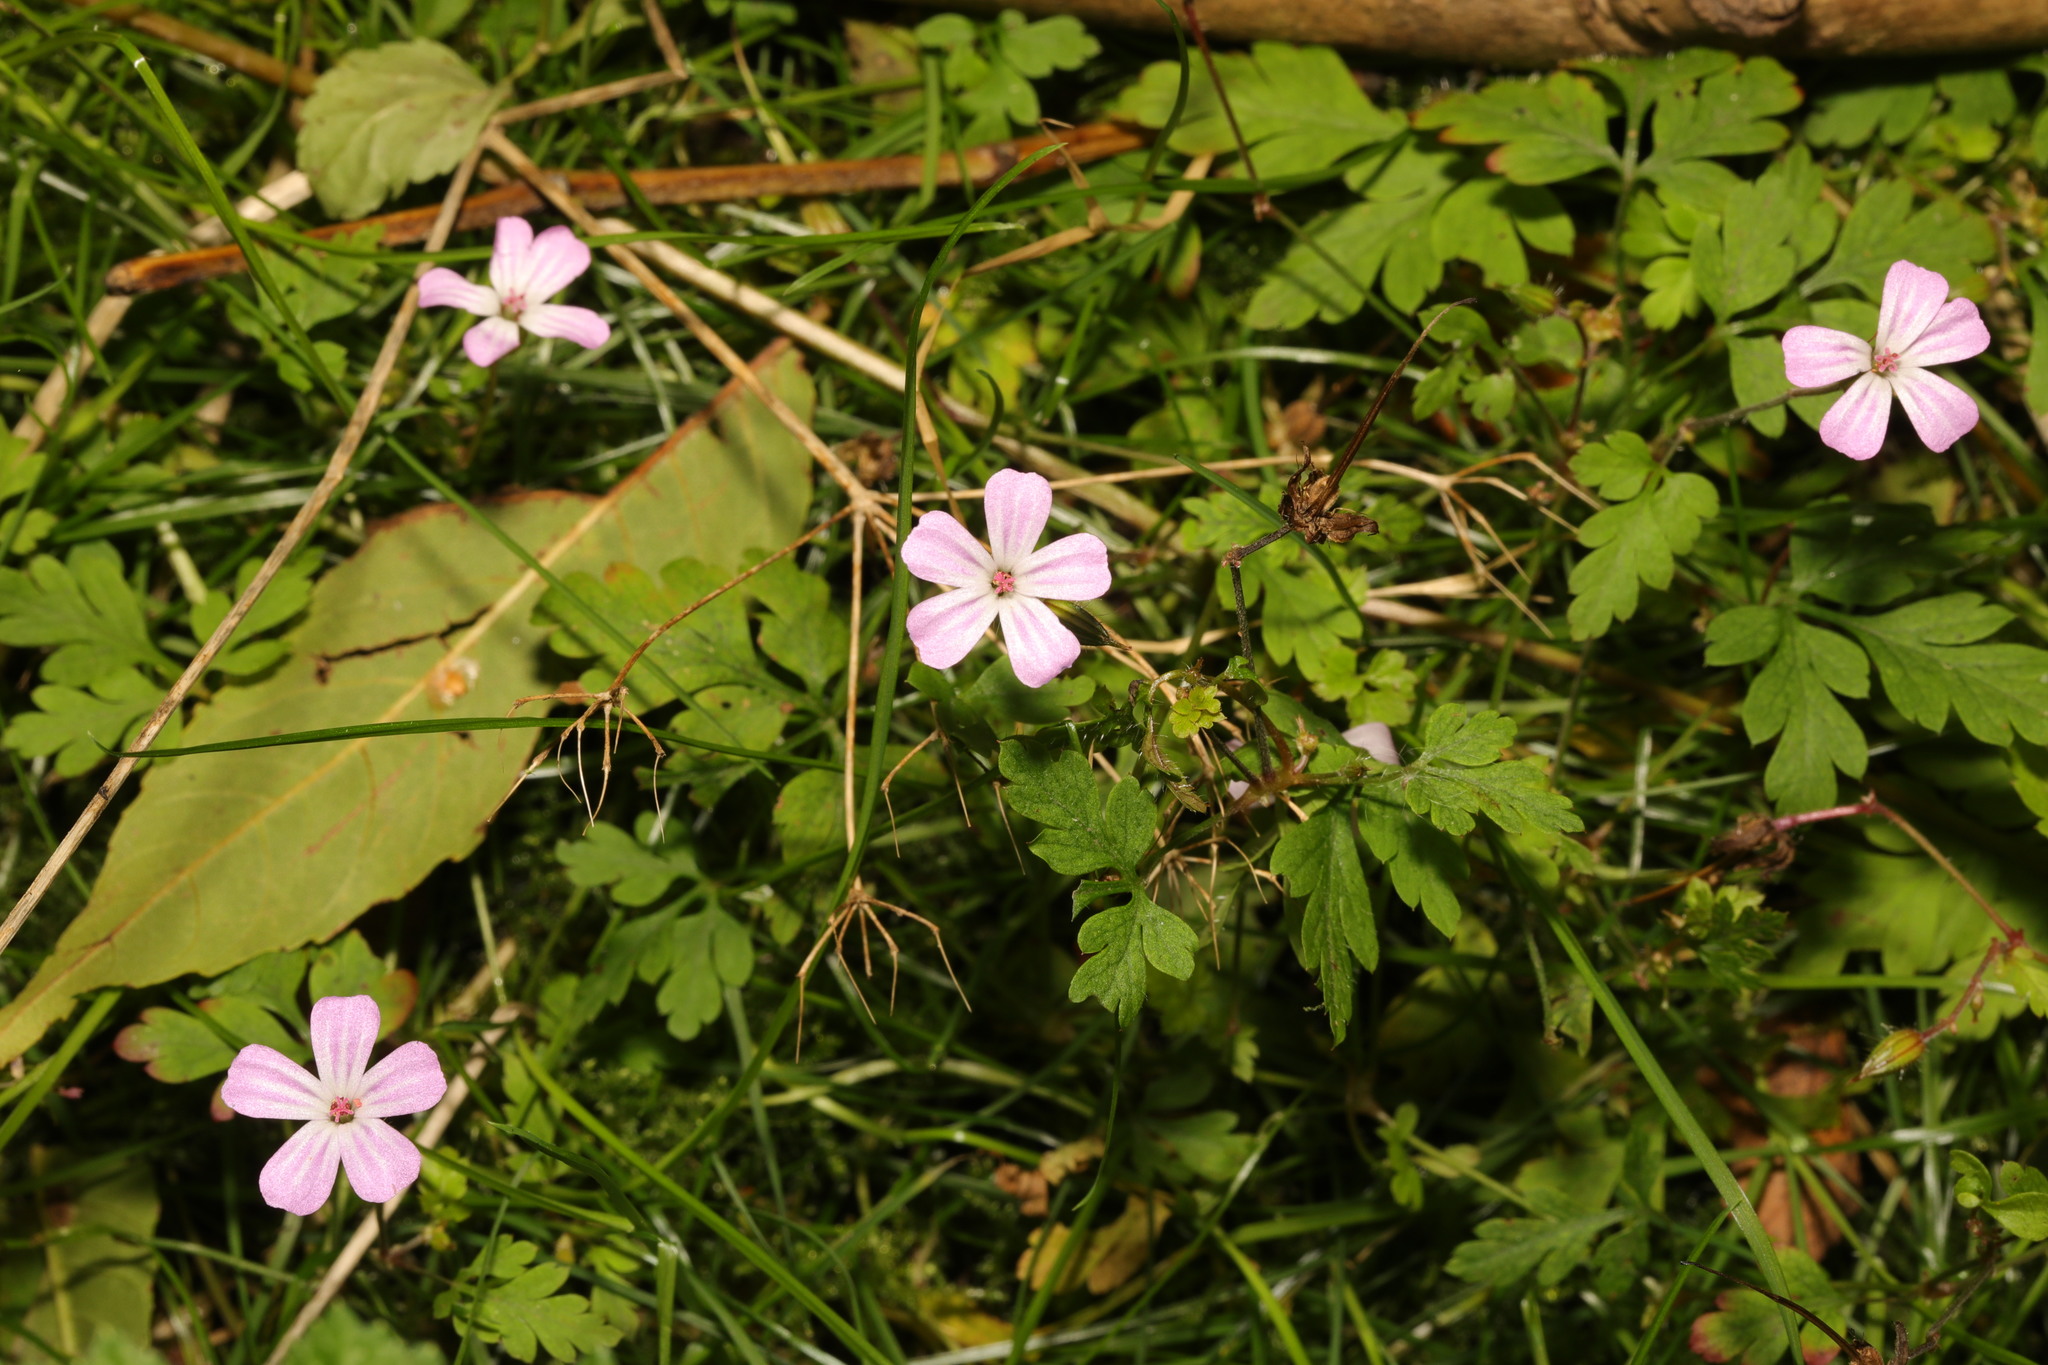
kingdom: Plantae
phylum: Tracheophyta
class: Magnoliopsida
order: Geraniales
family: Geraniaceae
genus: Geranium
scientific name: Geranium robertianum
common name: Herb-robert
